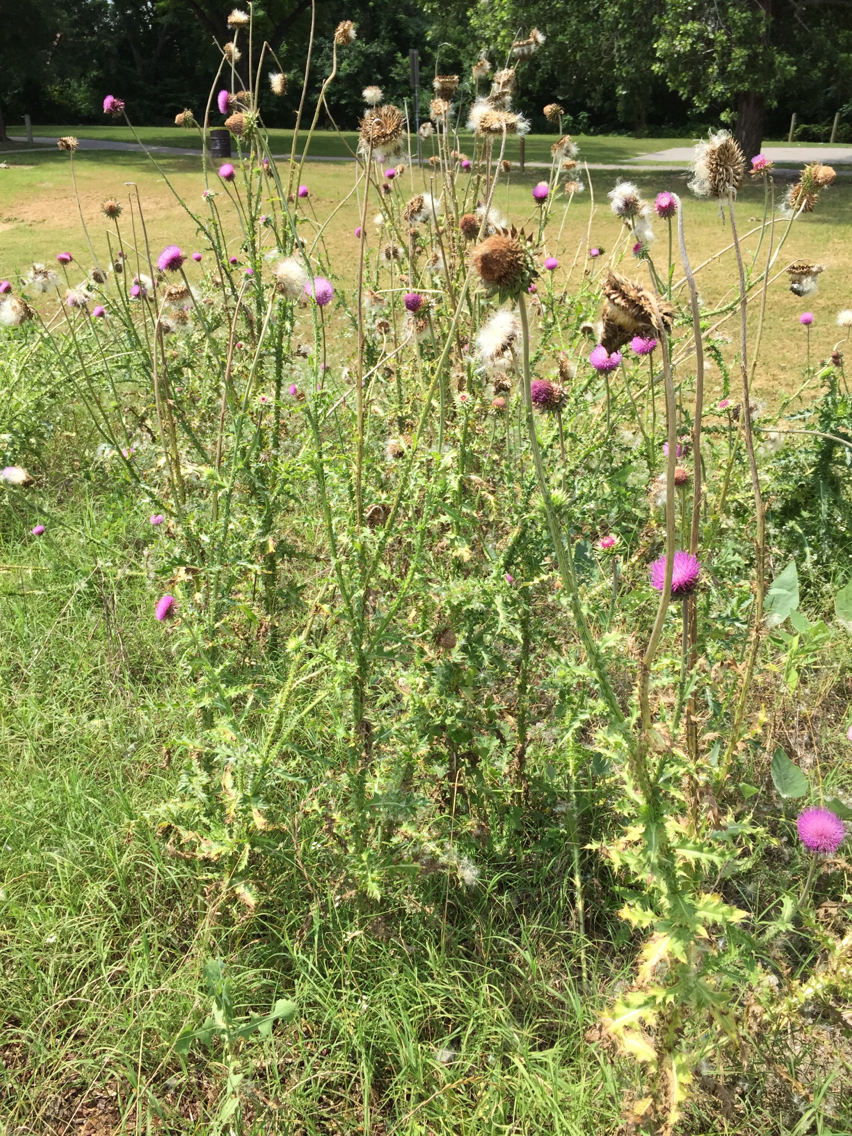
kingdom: Plantae
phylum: Tracheophyta
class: Magnoliopsida
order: Asterales
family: Asteraceae
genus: Carduus
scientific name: Carduus nutans
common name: Musk thistle
